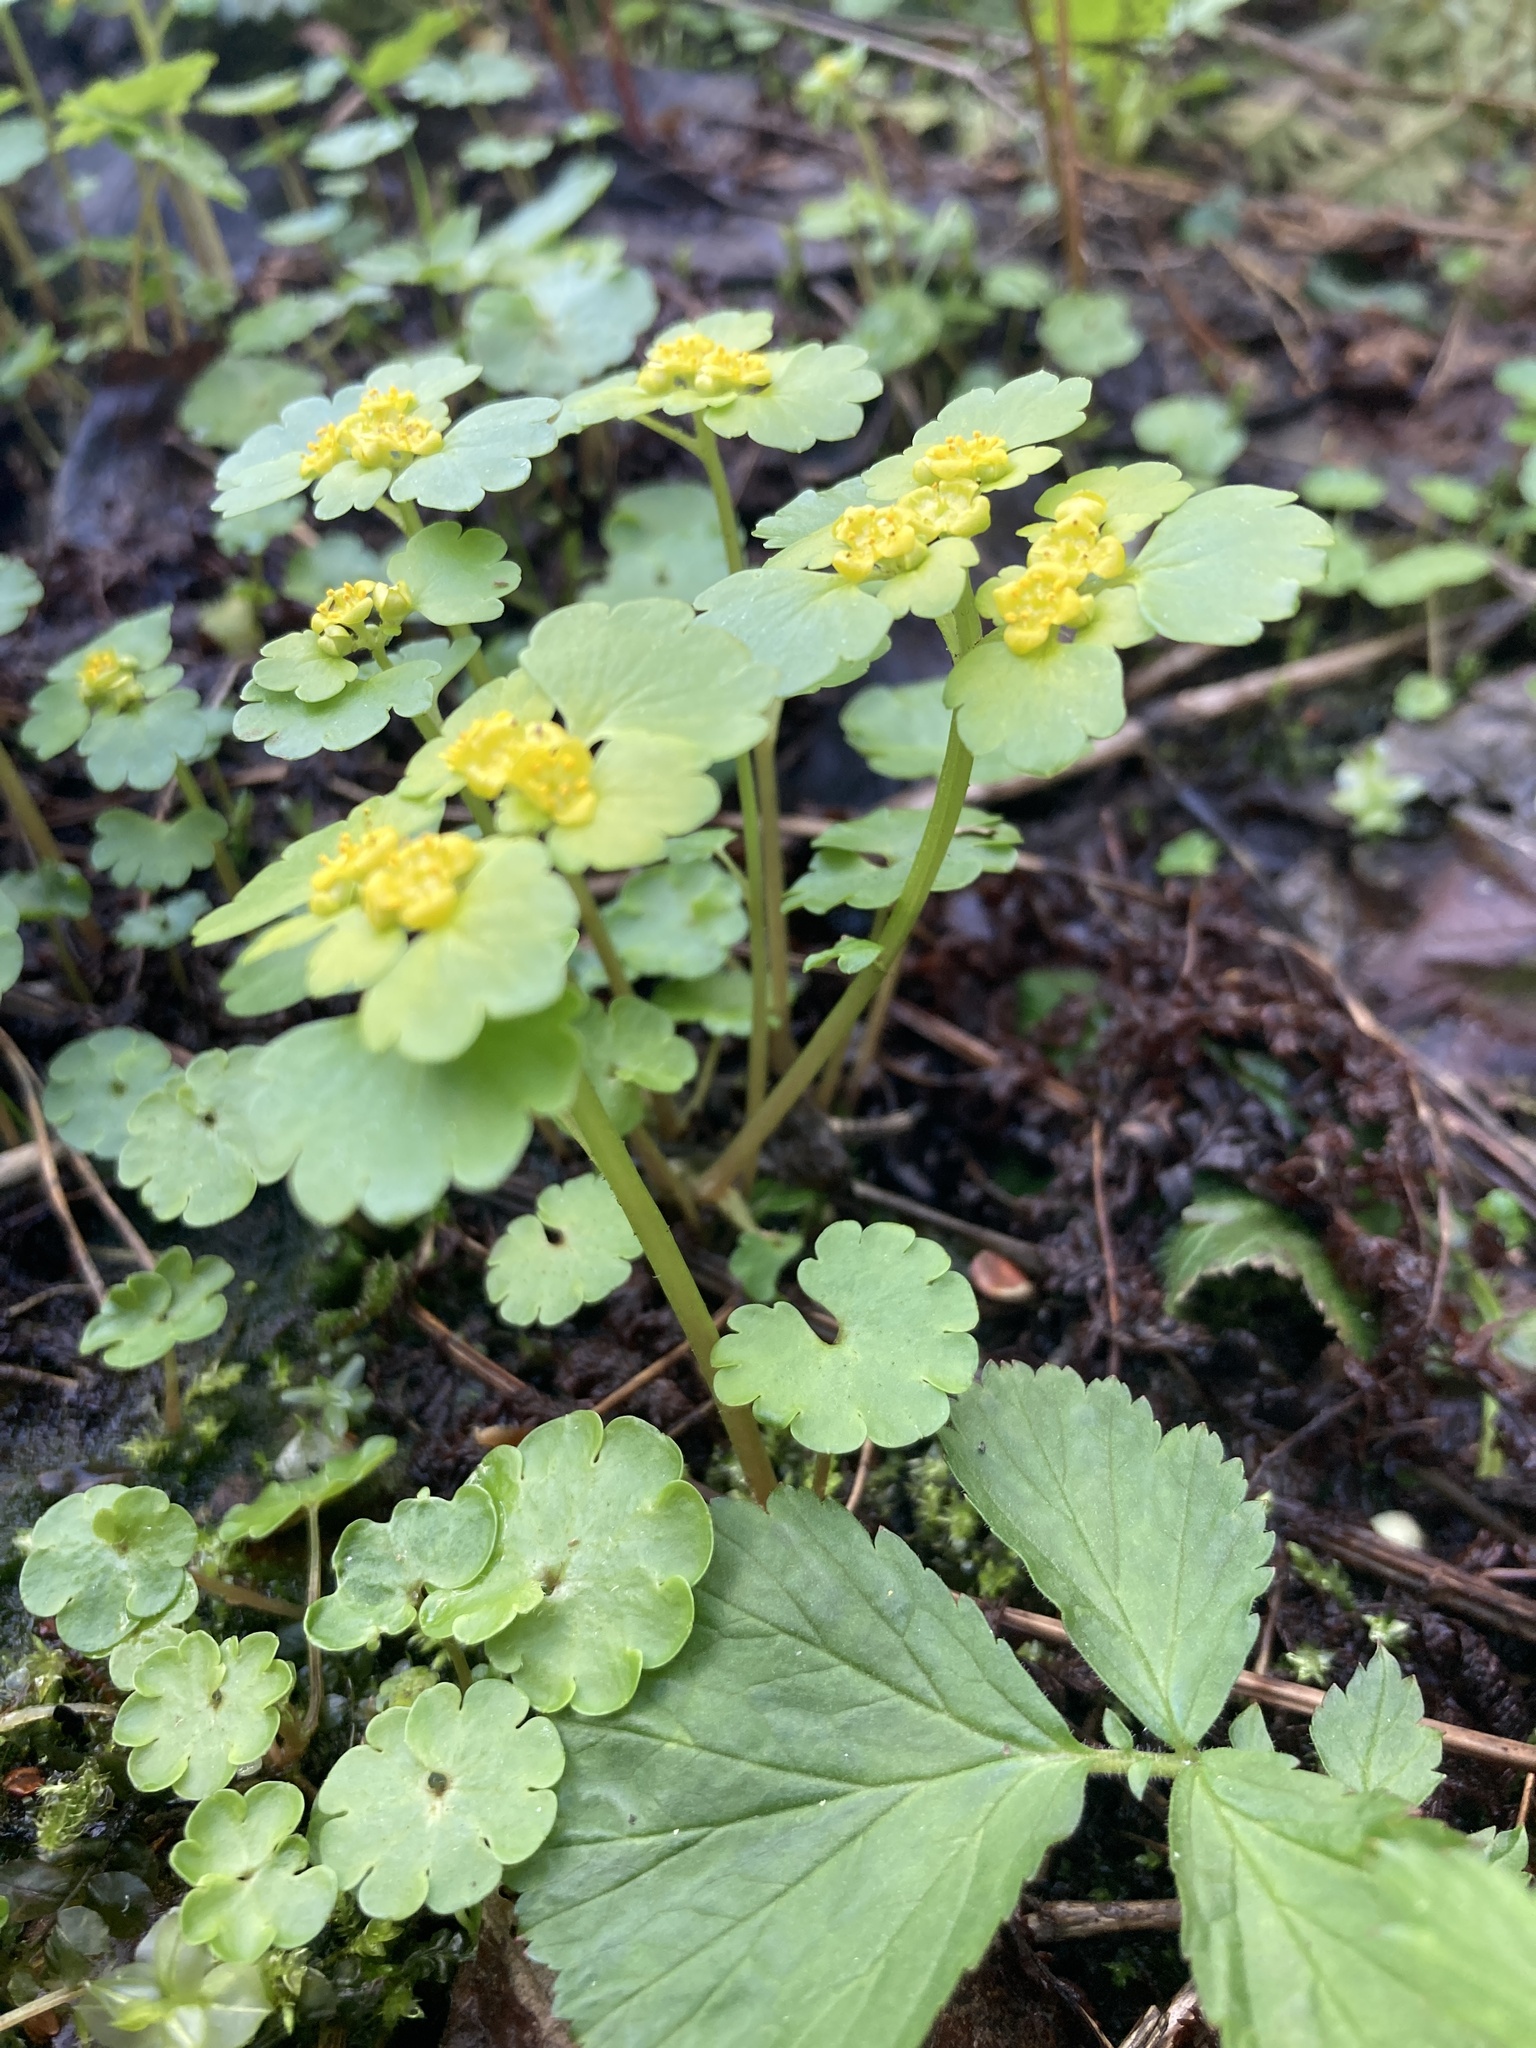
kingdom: Plantae
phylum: Tracheophyta
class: Magnoliopsida
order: Saxifragales
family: Saxifragaceae
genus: Chrysosplenium
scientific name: Chrysosplenium alternifolium
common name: Alternate-leaved golden-saxifrage
